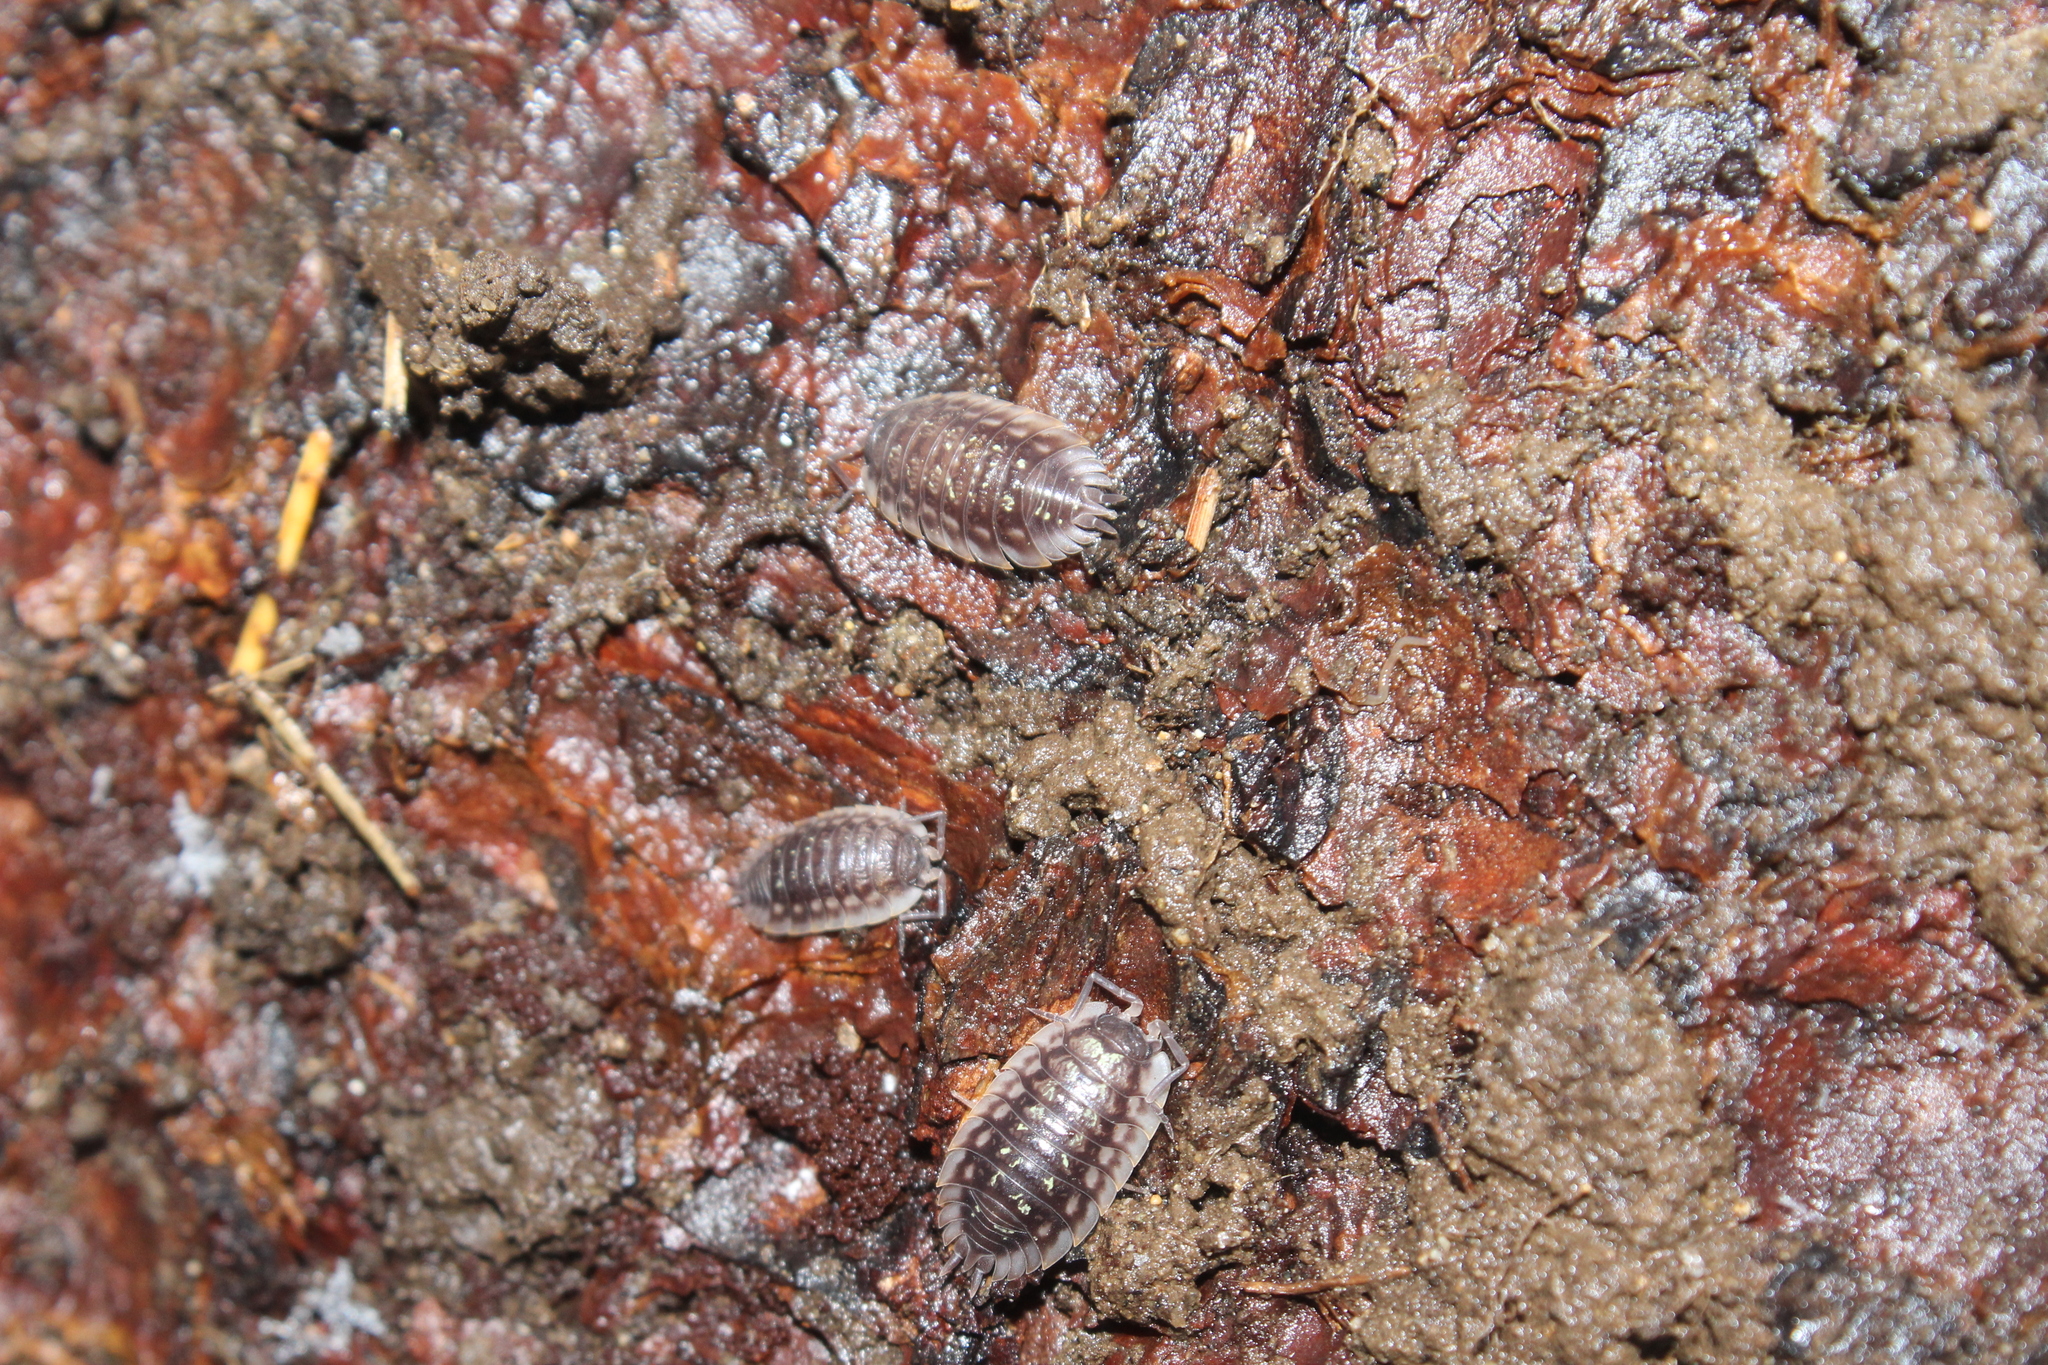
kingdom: Animalia
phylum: Arthropoda
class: Malacostraca
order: Isopoda
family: Oniscidae
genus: Oniscus
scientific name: Oniscus asellus
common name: Common shiny woodlouse
